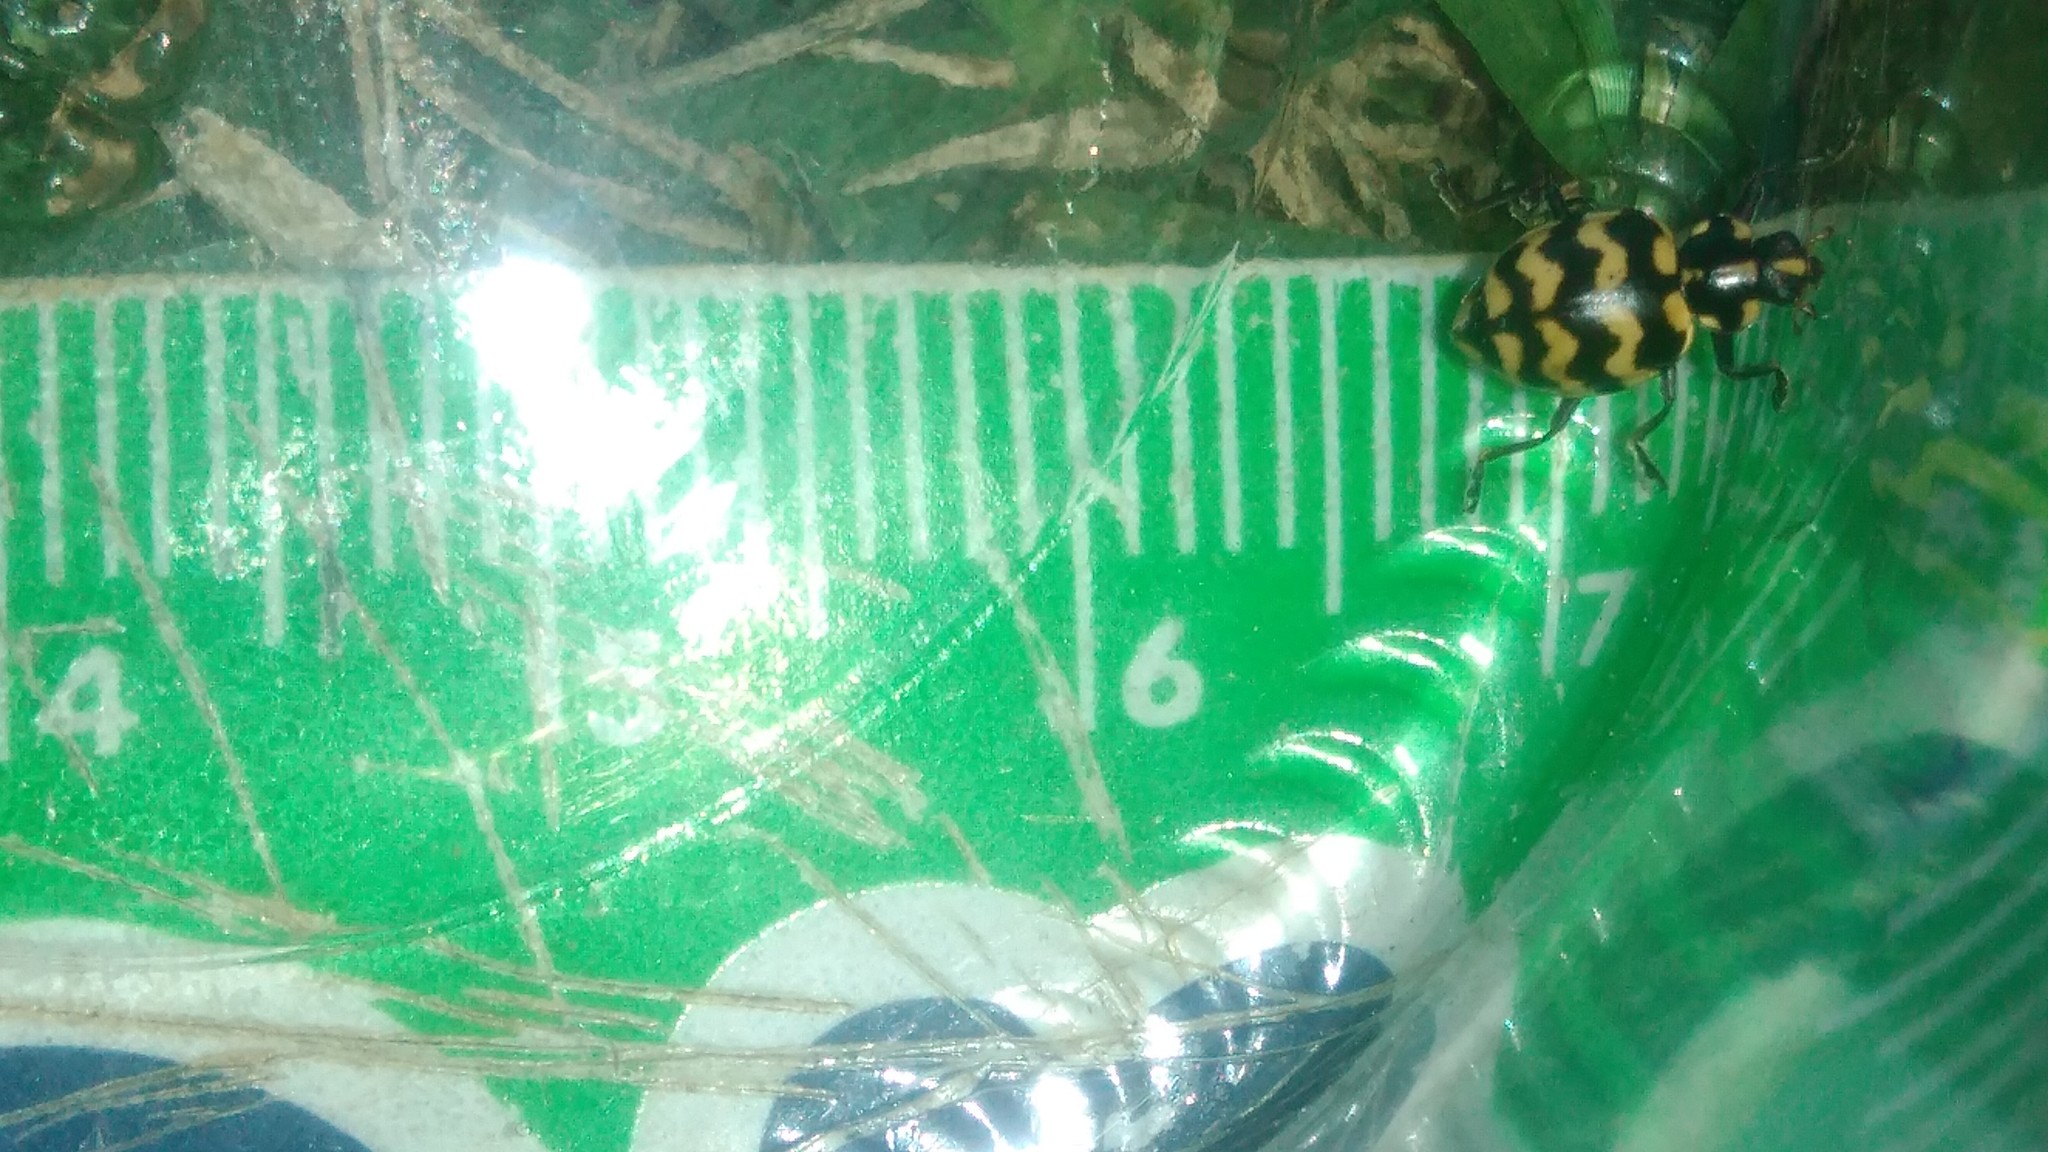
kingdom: Animalia
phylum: Arthropoda
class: Insecta
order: Coleoptera
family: Coccinellidae
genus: Coleomegilla
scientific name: Coleomegilla
